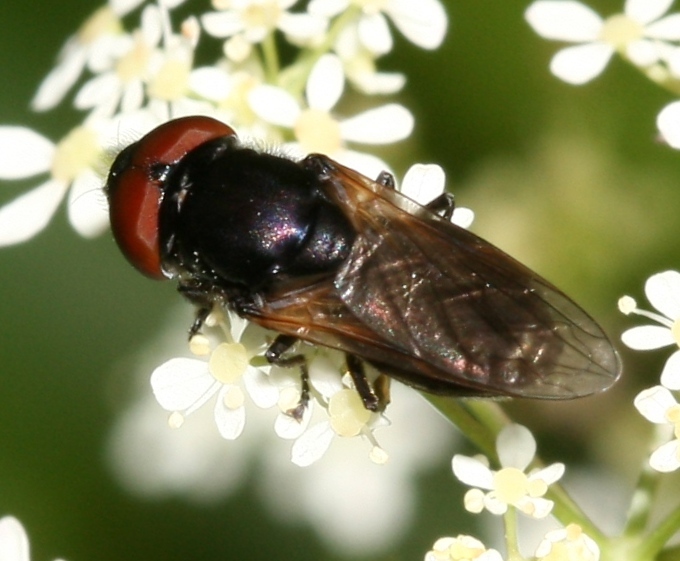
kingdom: Animalia
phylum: Arthropoda
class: Insecta
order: Diptera
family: Syrphidae
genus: Chrysogaster
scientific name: Chrysogaster cemiteriorum
